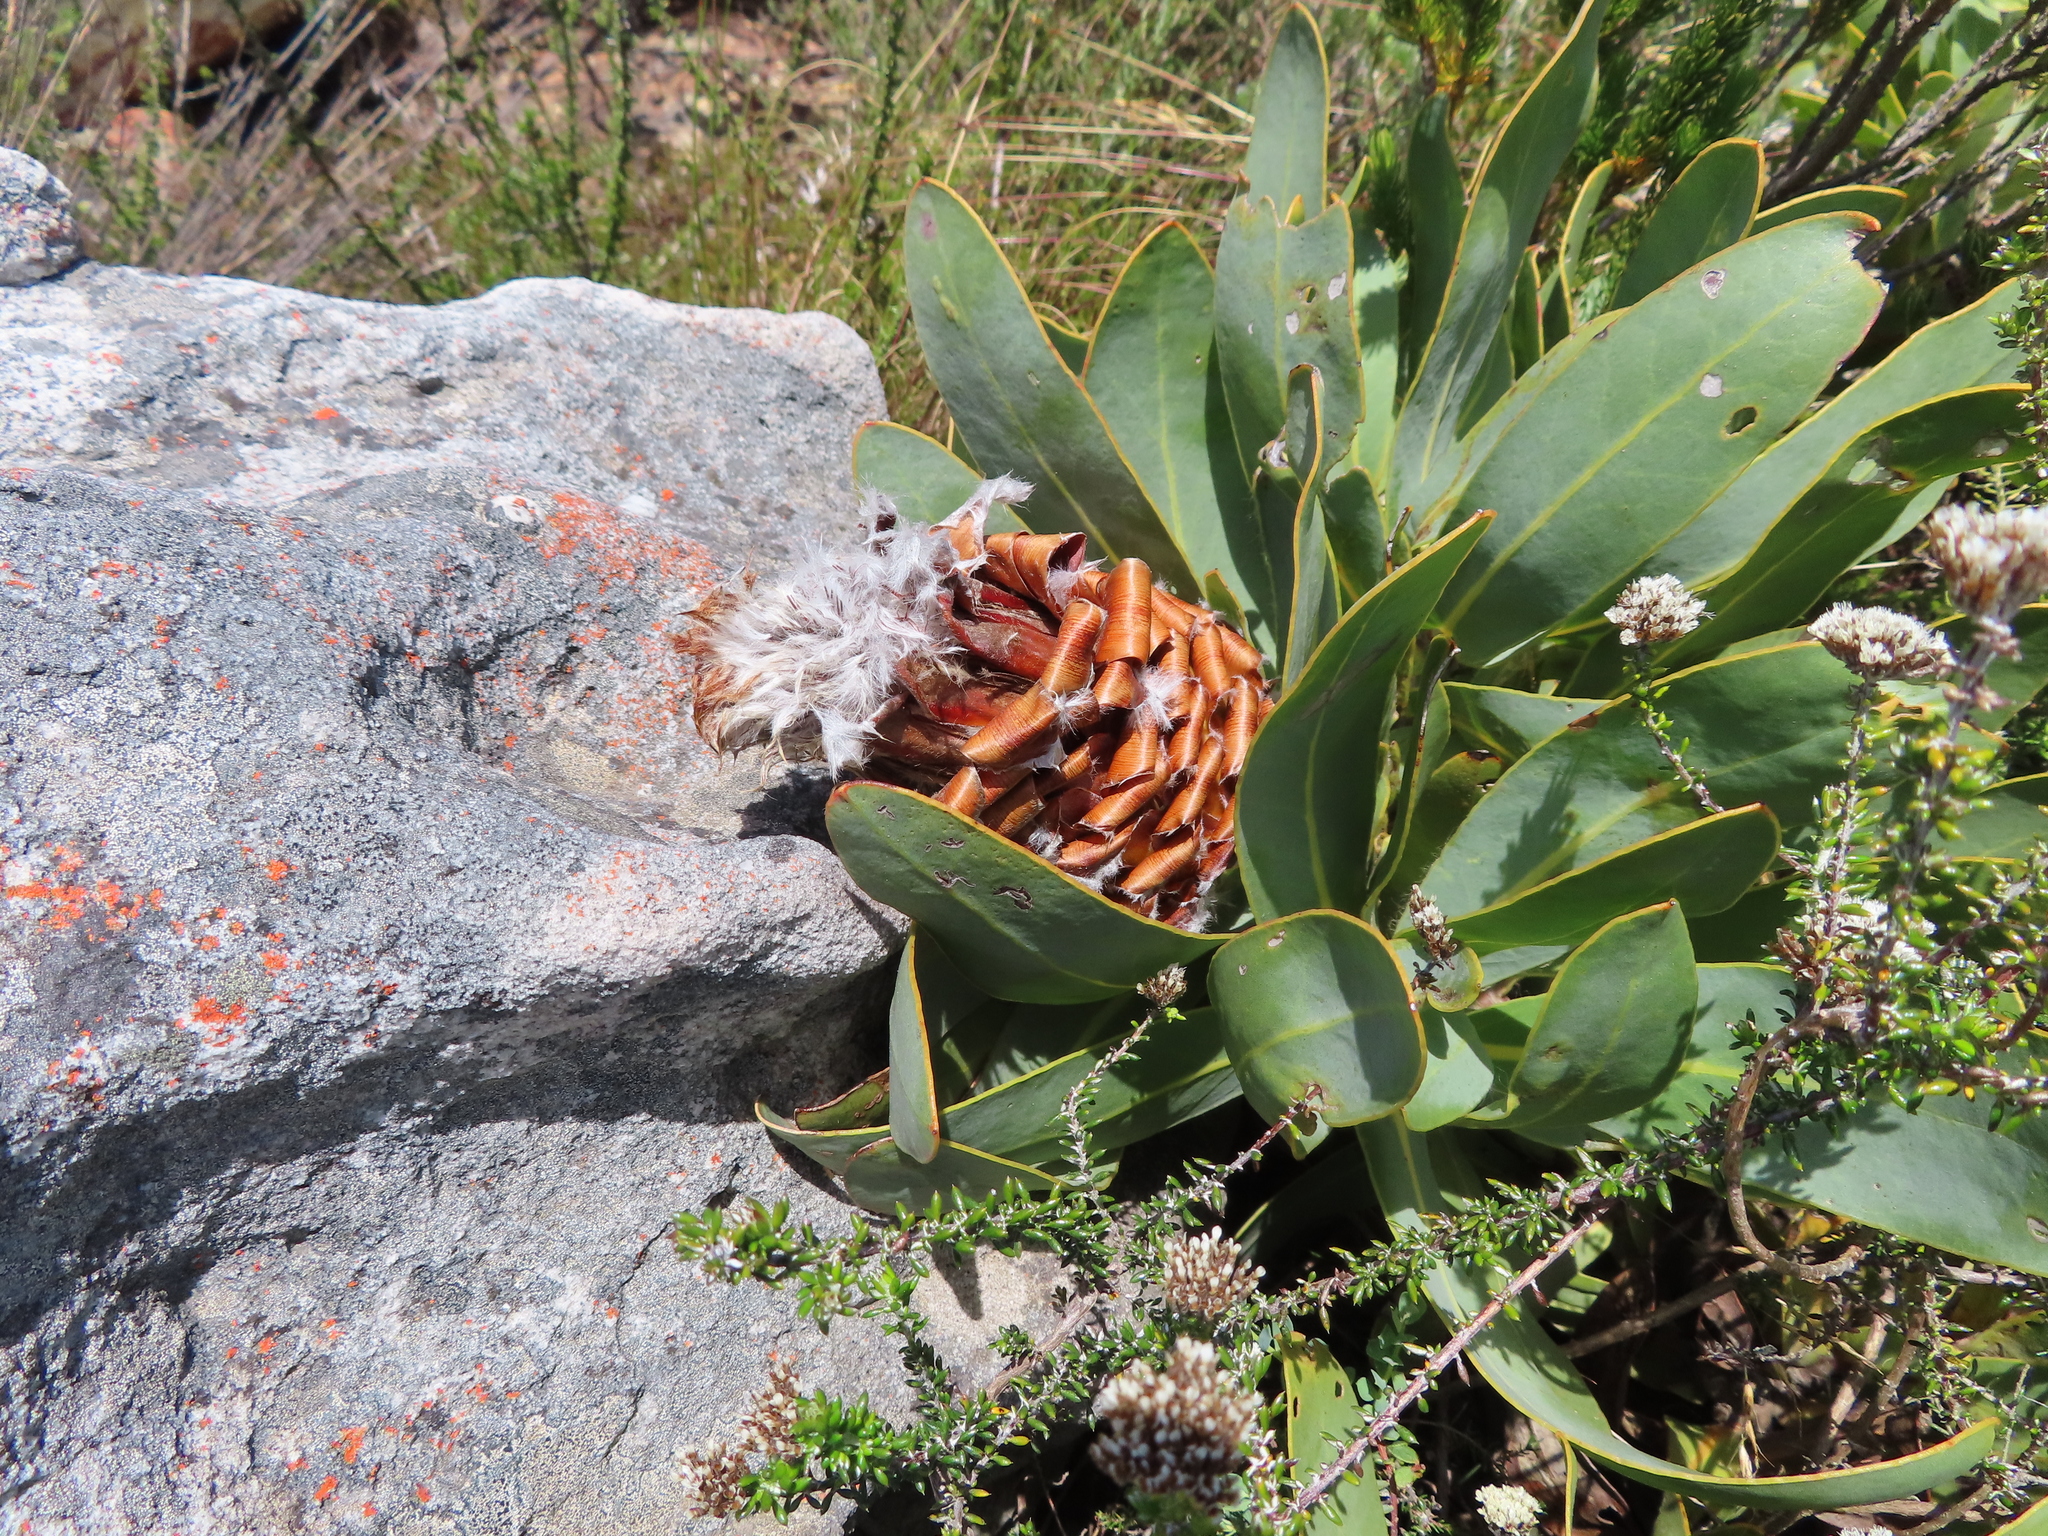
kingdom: Plantae
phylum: Tracheophyta
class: Magnoliopsida
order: Proteales
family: Proteaceae
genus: Protea
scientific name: Protea magnifica
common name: Bearded sugarbush
